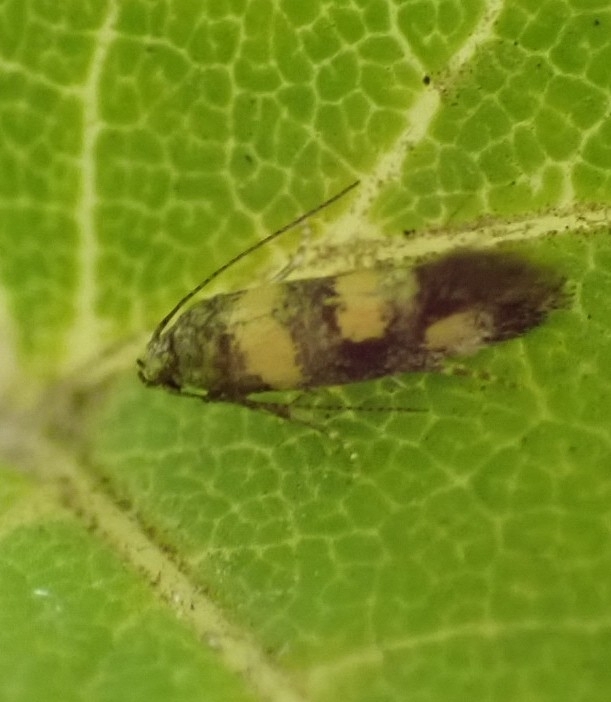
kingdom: Animalia
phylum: Arthropoda
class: Insecta
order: Lepidoptera
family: Gelechiidae
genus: Chrysoesthia
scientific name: Chrysoesthia sexguttella
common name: Moth
